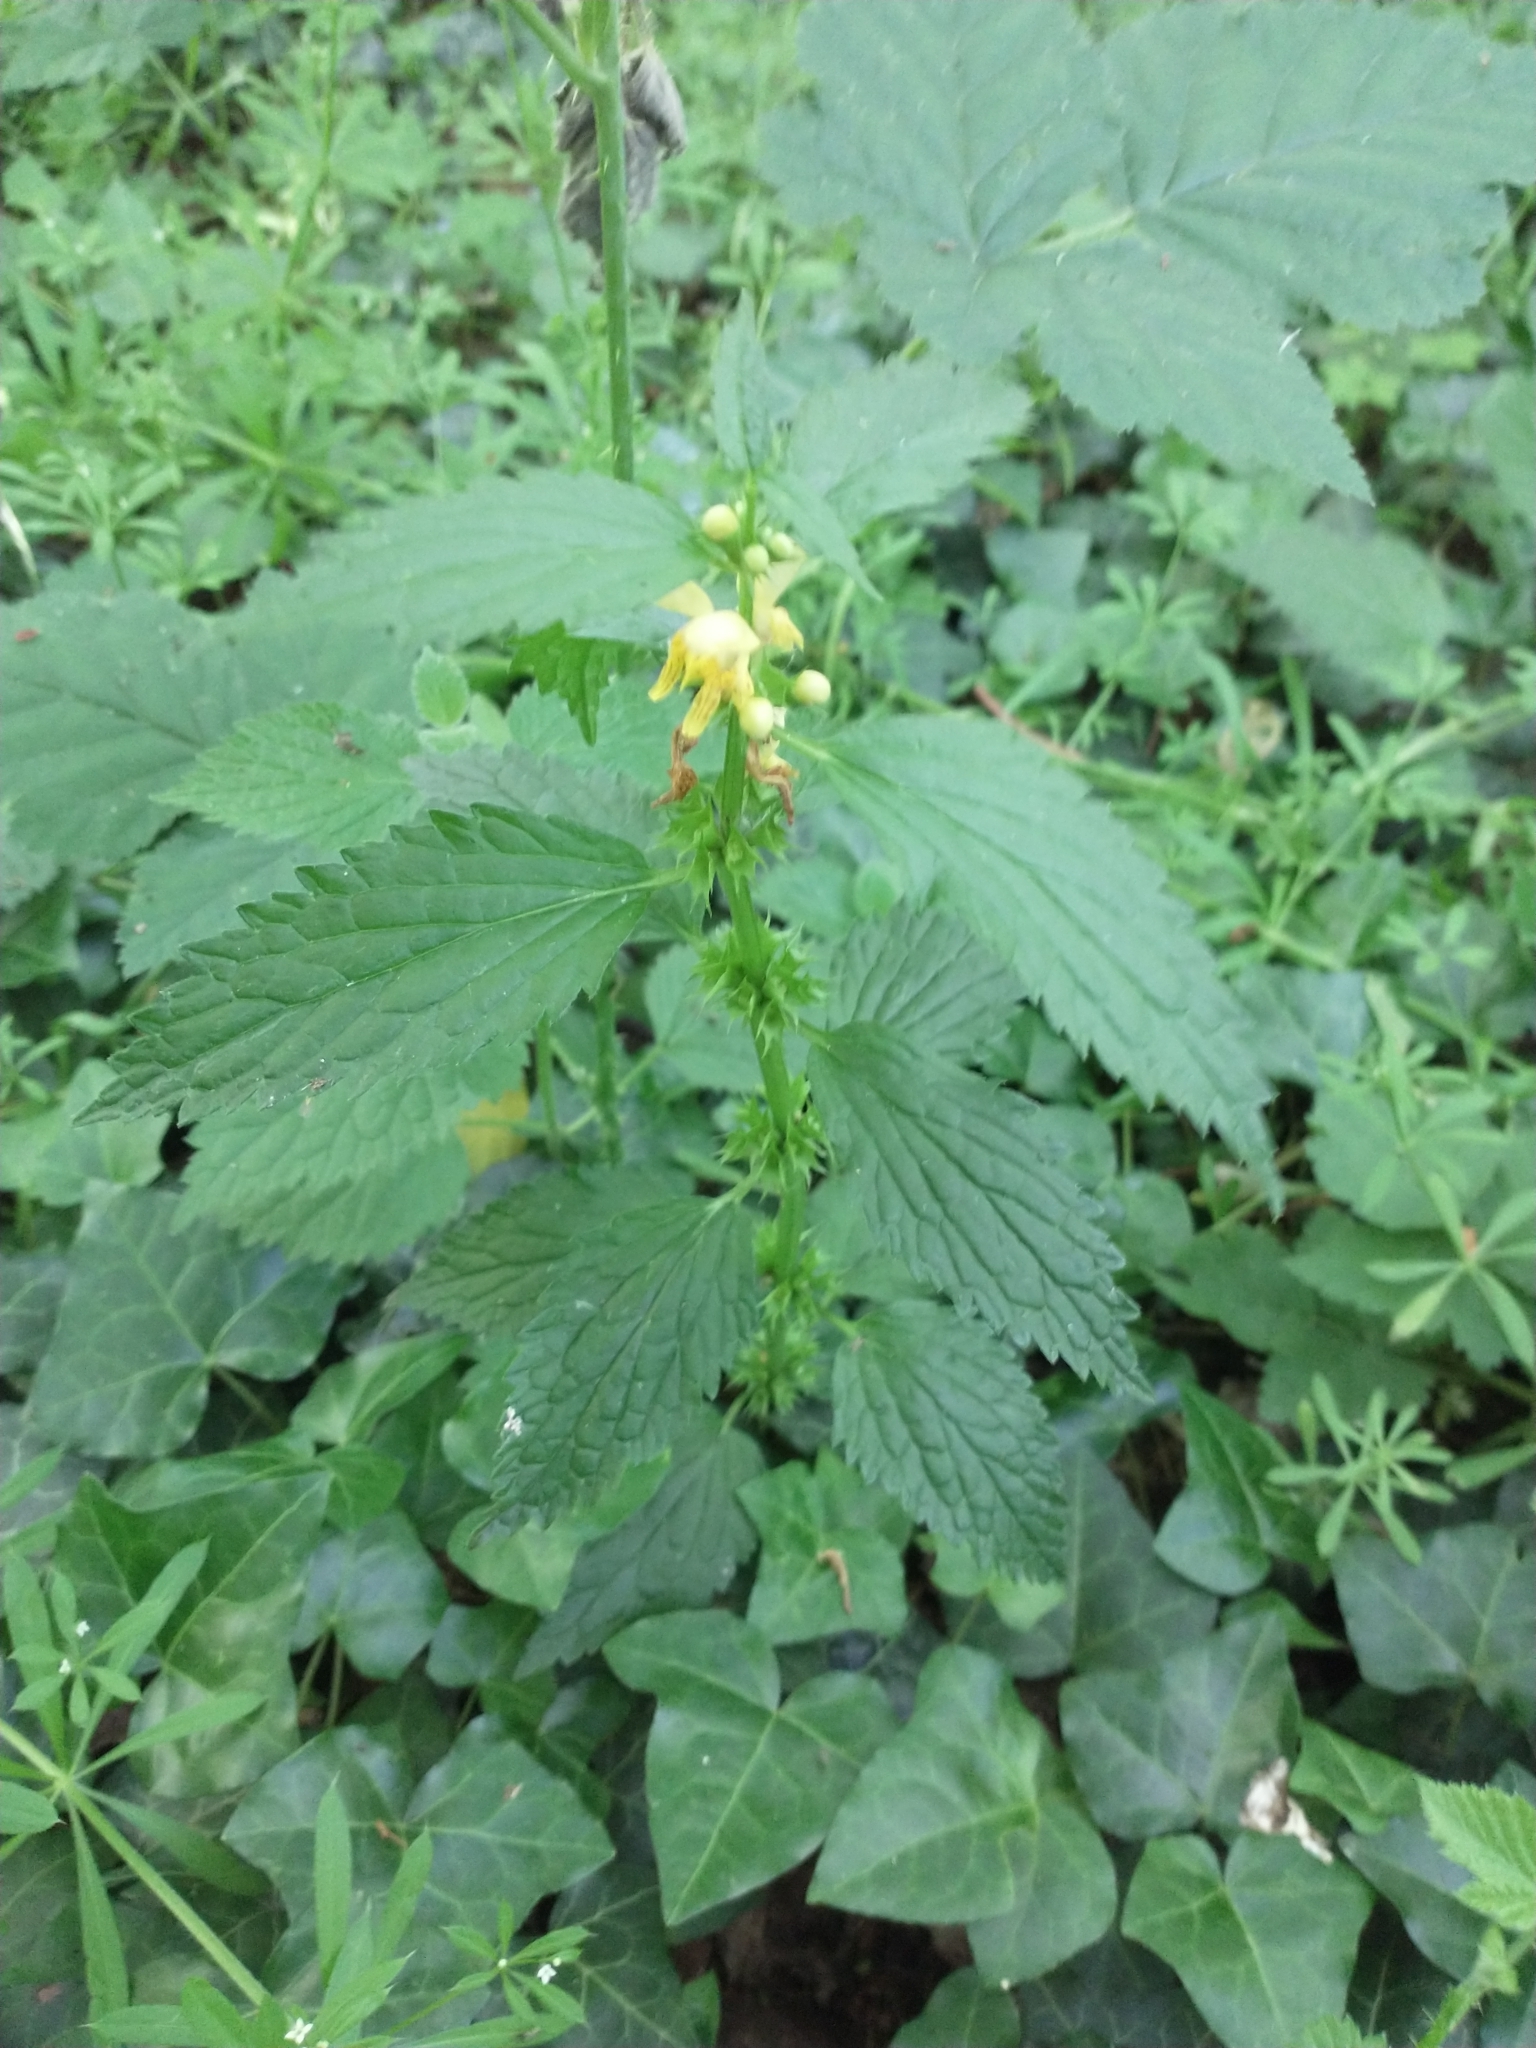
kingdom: Plantae
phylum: Tracheophyta
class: Magnoliopsida
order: Lamiales
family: Lamiaceae
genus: Lamium
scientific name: Lamium galeobdolon
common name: Yellow archangel
